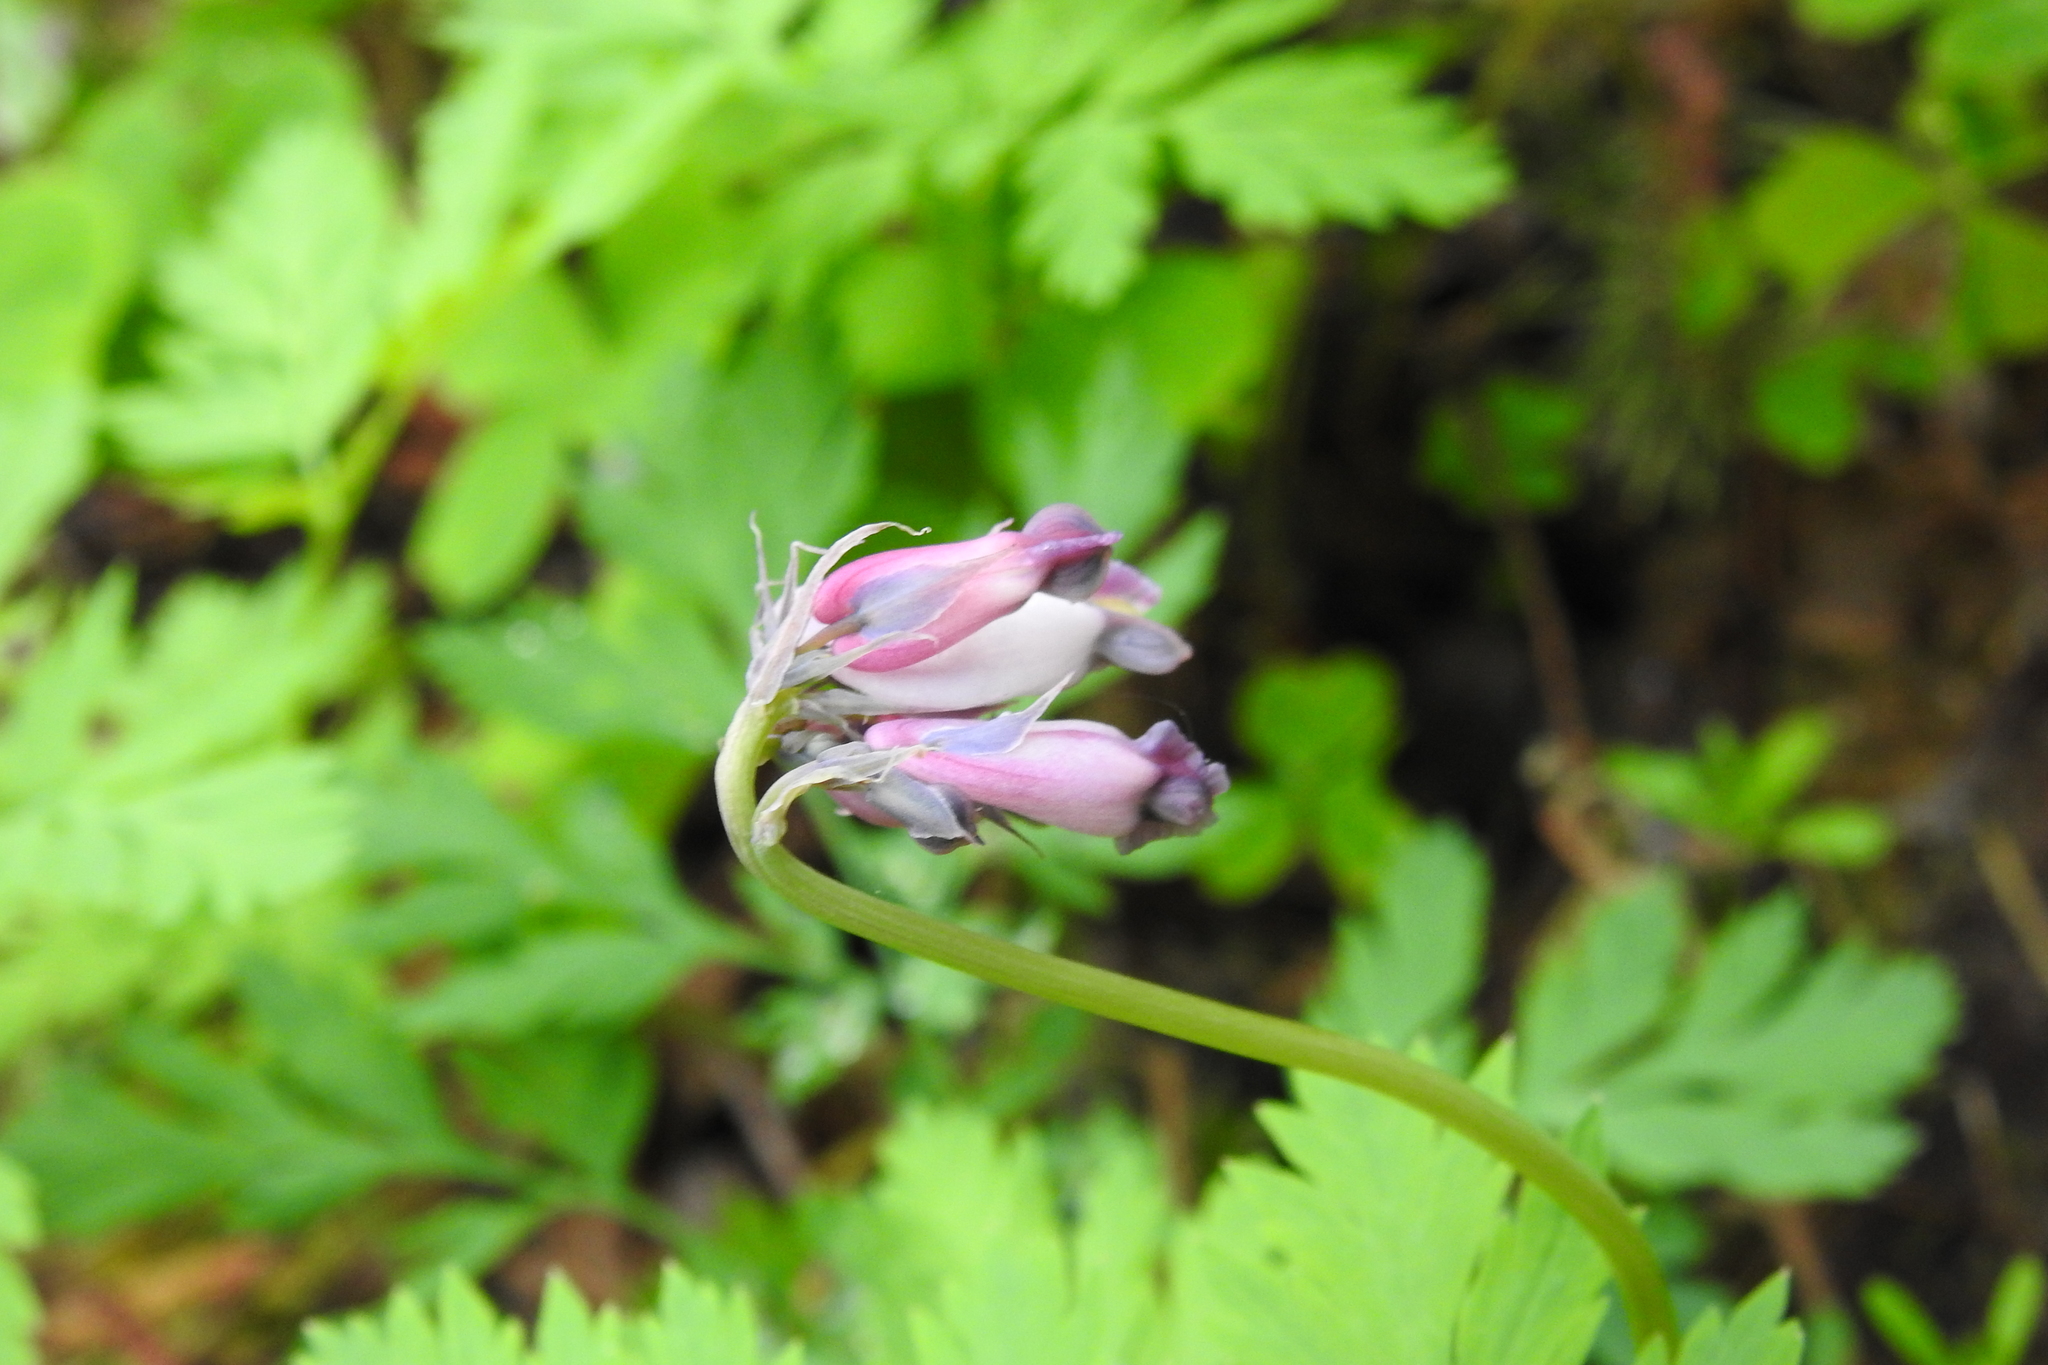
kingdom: Plantae
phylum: Tracheophyta
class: Magnoliopsida
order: Ranunculales
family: Papaveraceae
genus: Dicentra
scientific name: Dicentra formosa
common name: Bleeding-heart
